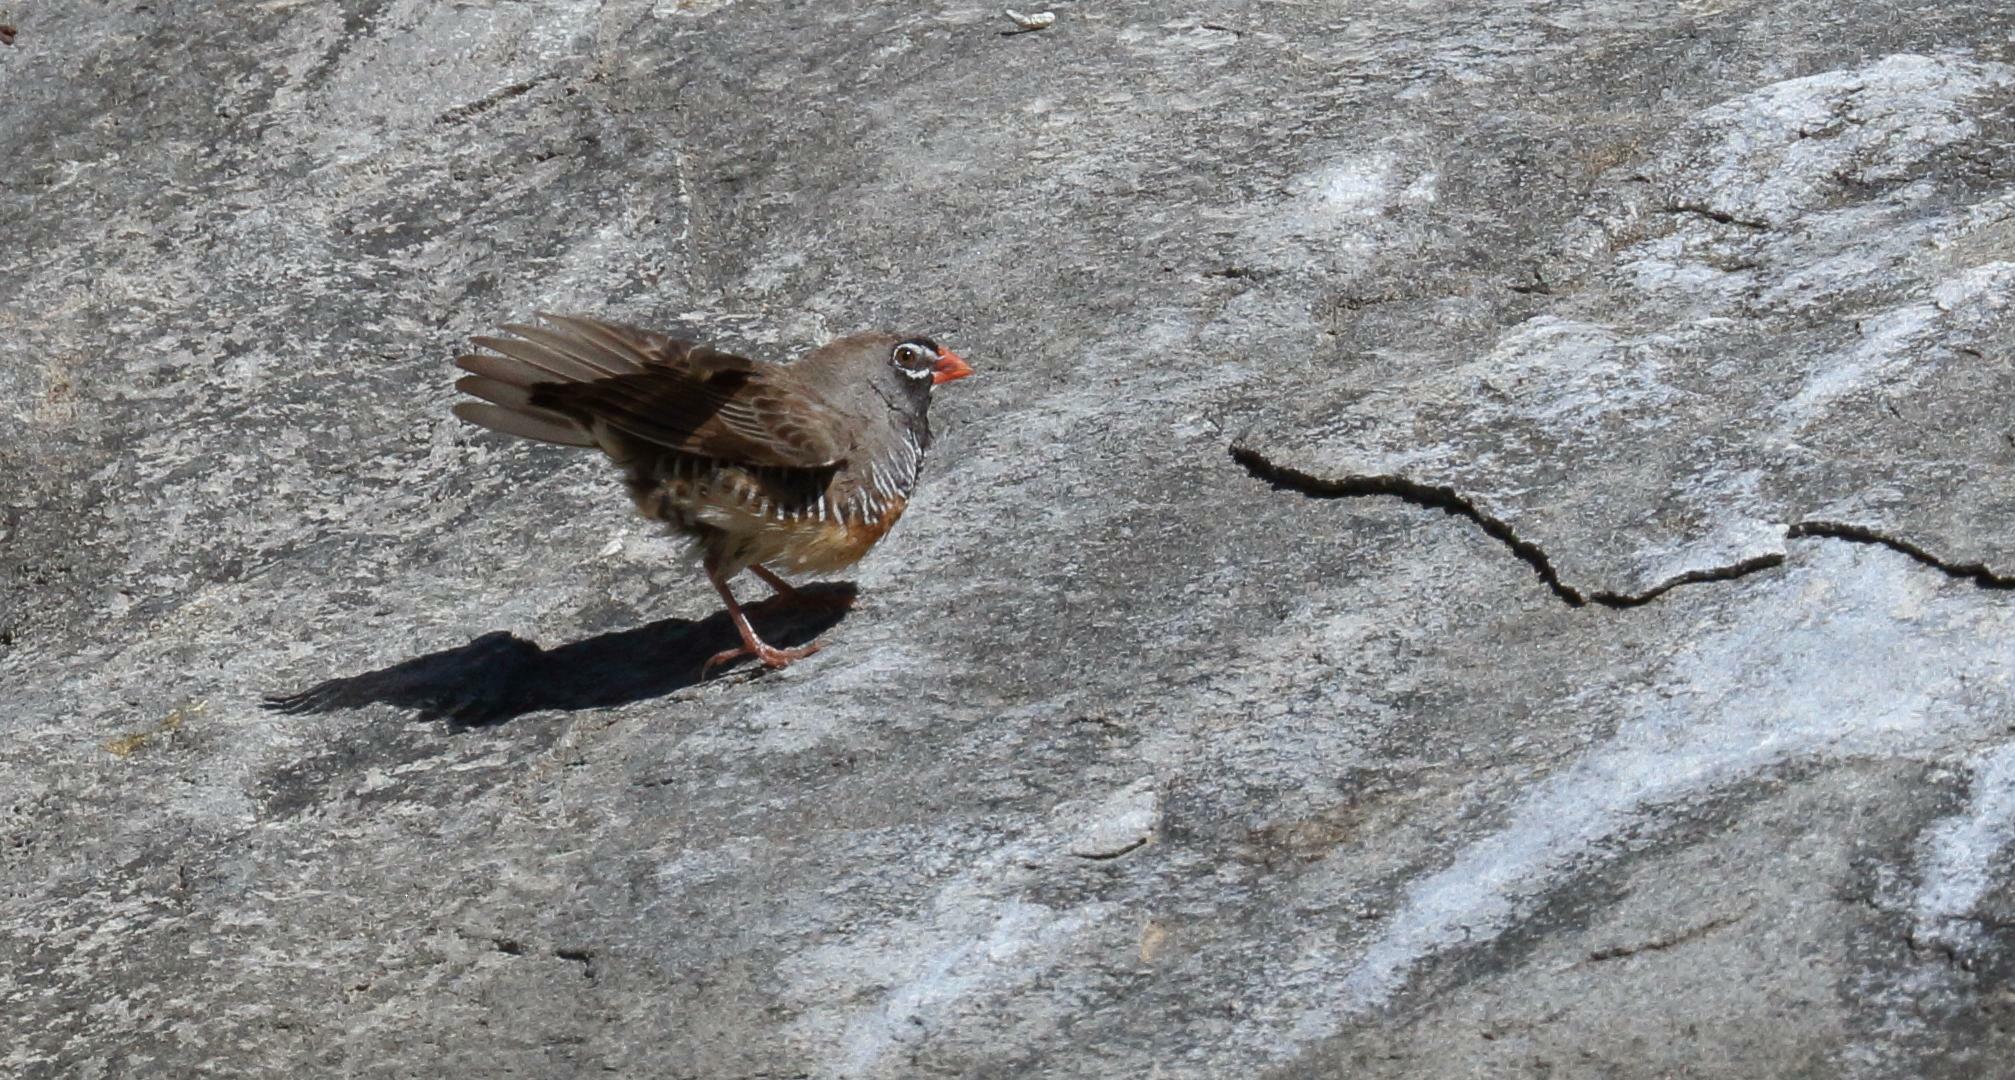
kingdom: Animalia
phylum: Chordata
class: Aves
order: Passeriformes
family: Estrildidae
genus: Ortygospiza
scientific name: Ortygospiza atricollis
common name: Quailfinch
